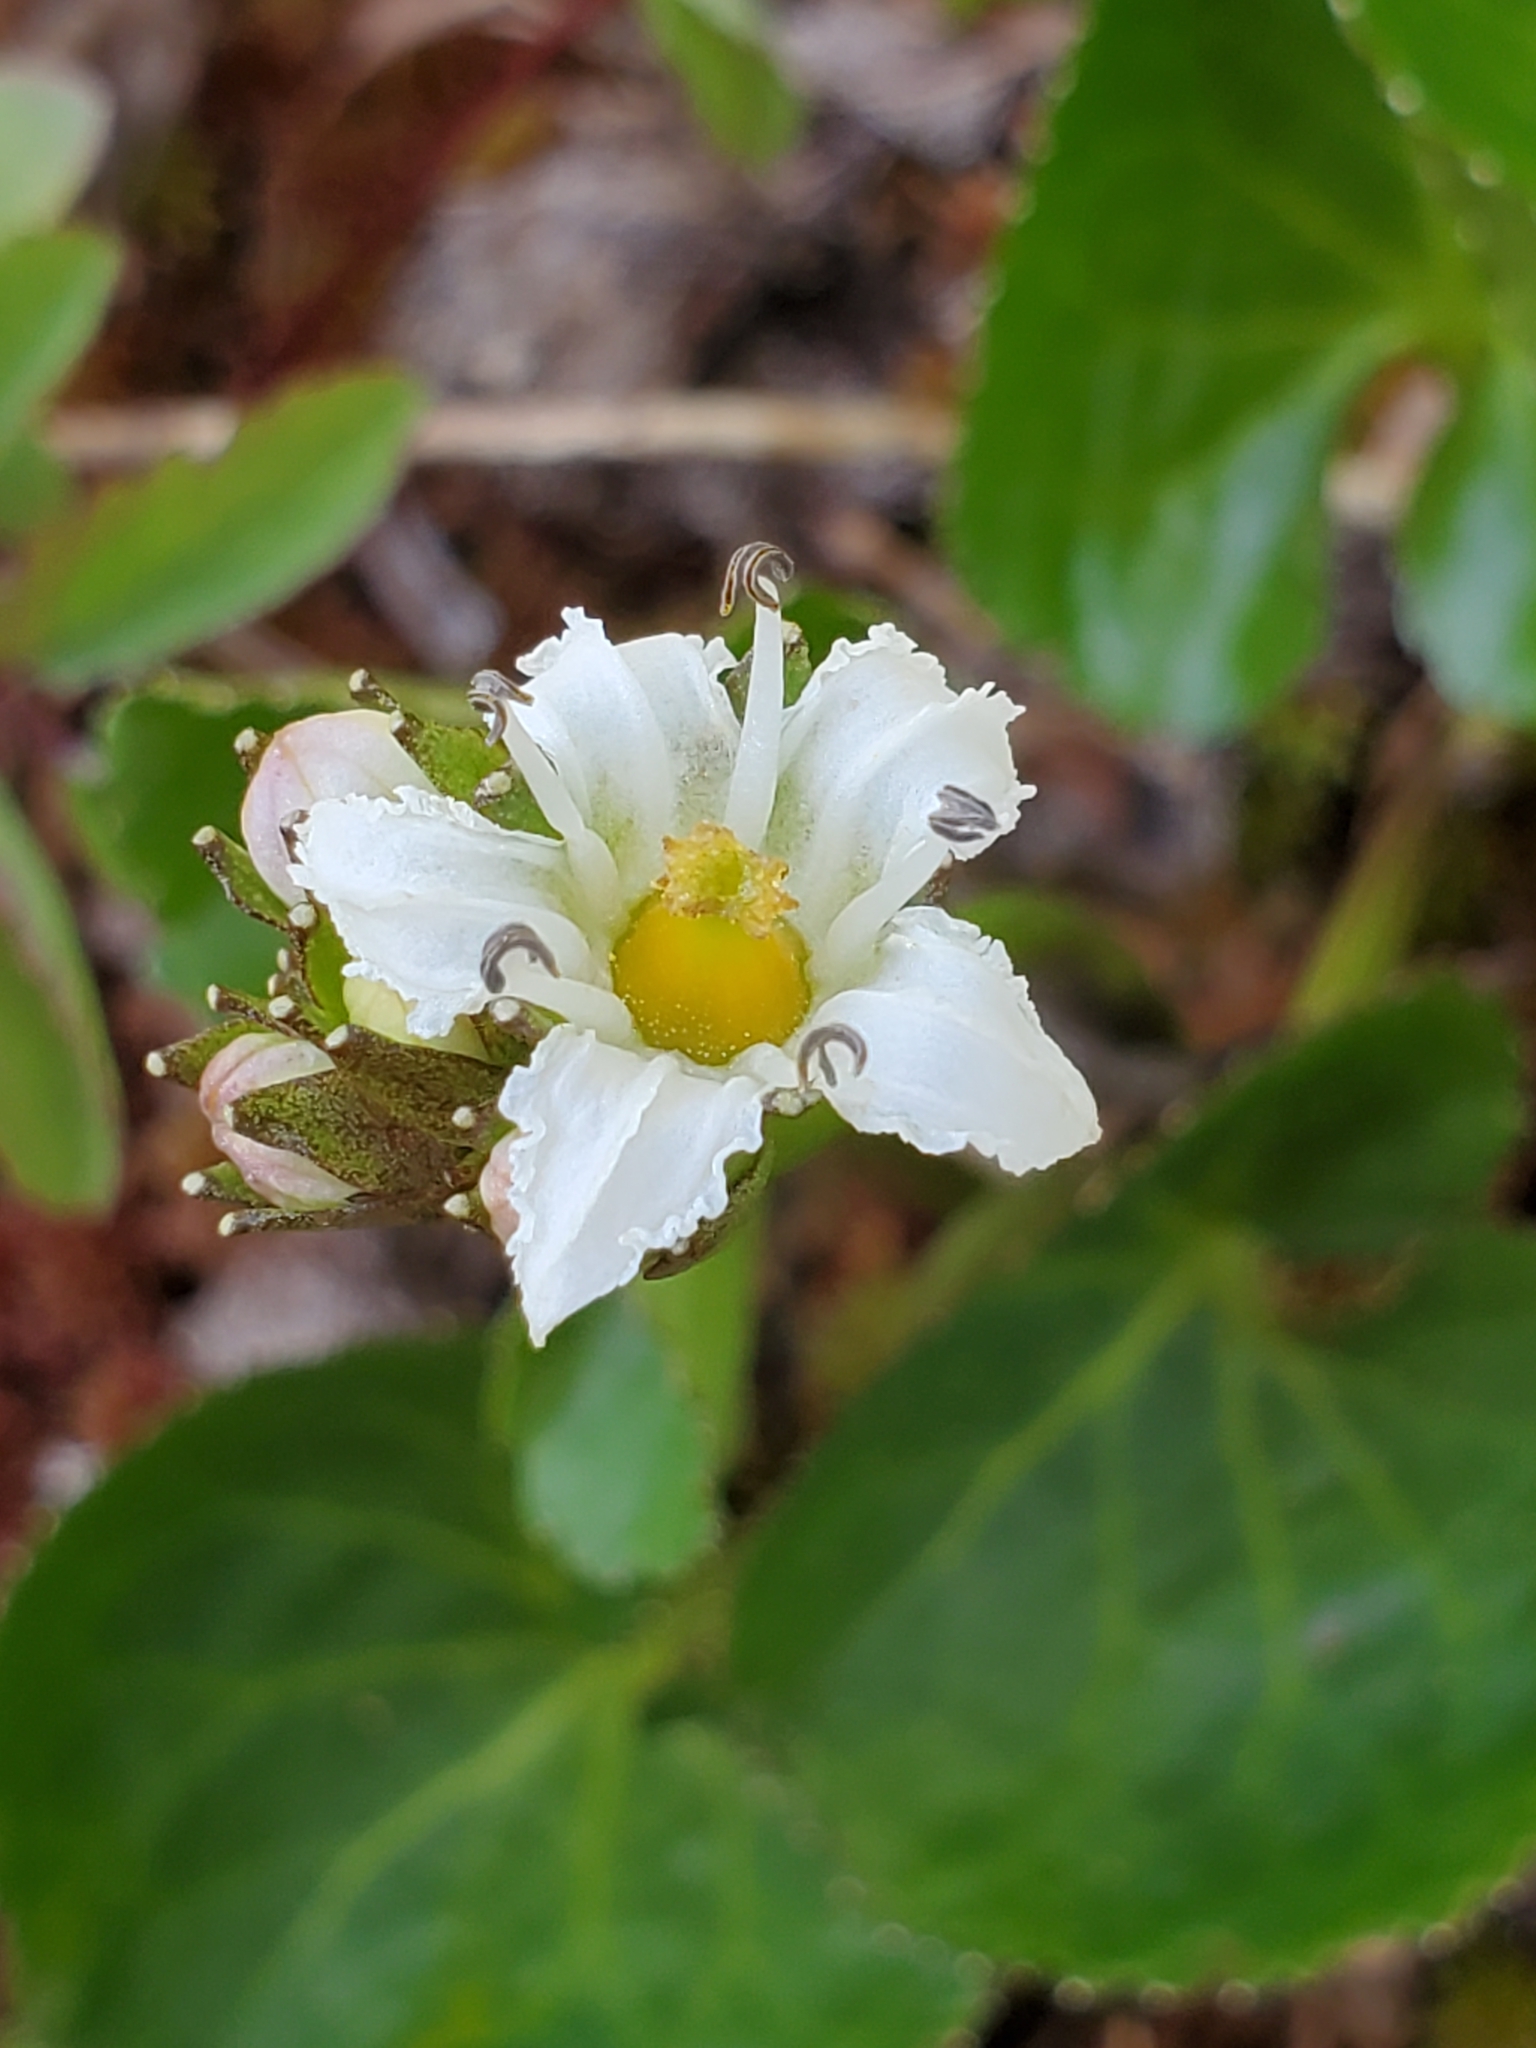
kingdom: Plantae
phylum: Tracheophyta
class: Magnoliopsida
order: Asterales
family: Menyanthaceae
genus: Nephrophyllidium
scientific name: Nephrophyllidium crista-galli
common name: Deer-cabbage
